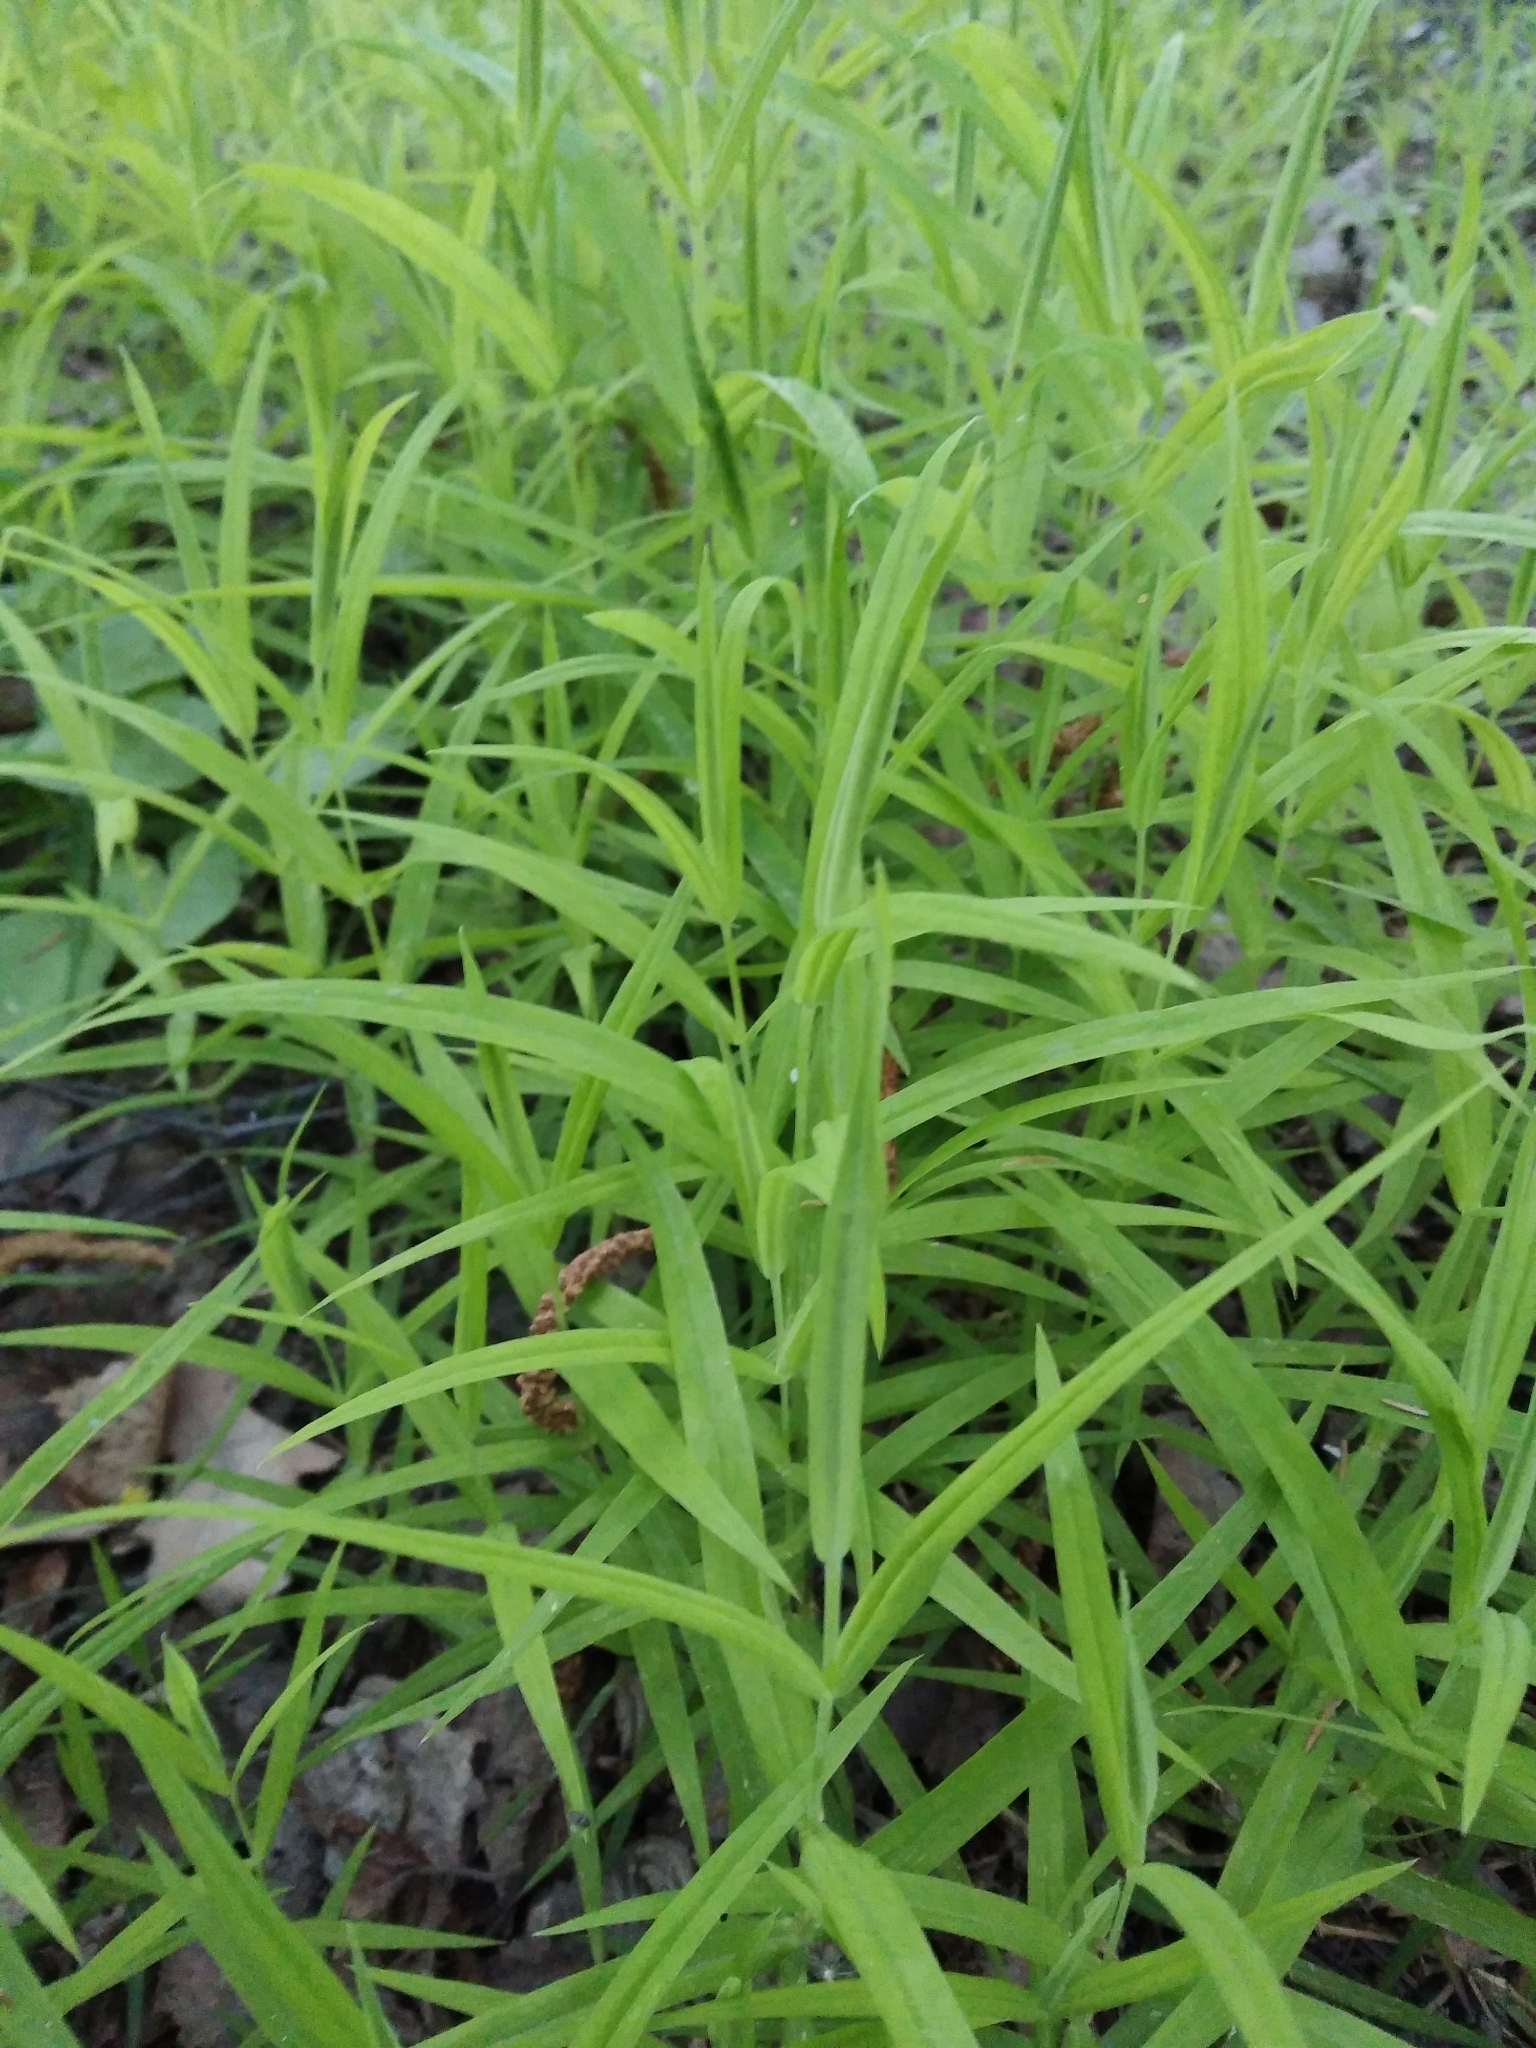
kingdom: Plantae
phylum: Tracheophyta
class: Magnoliopsida
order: Caryophyllales
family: Caryophyllaceae
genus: Rabelera
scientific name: Rabelera holostea
